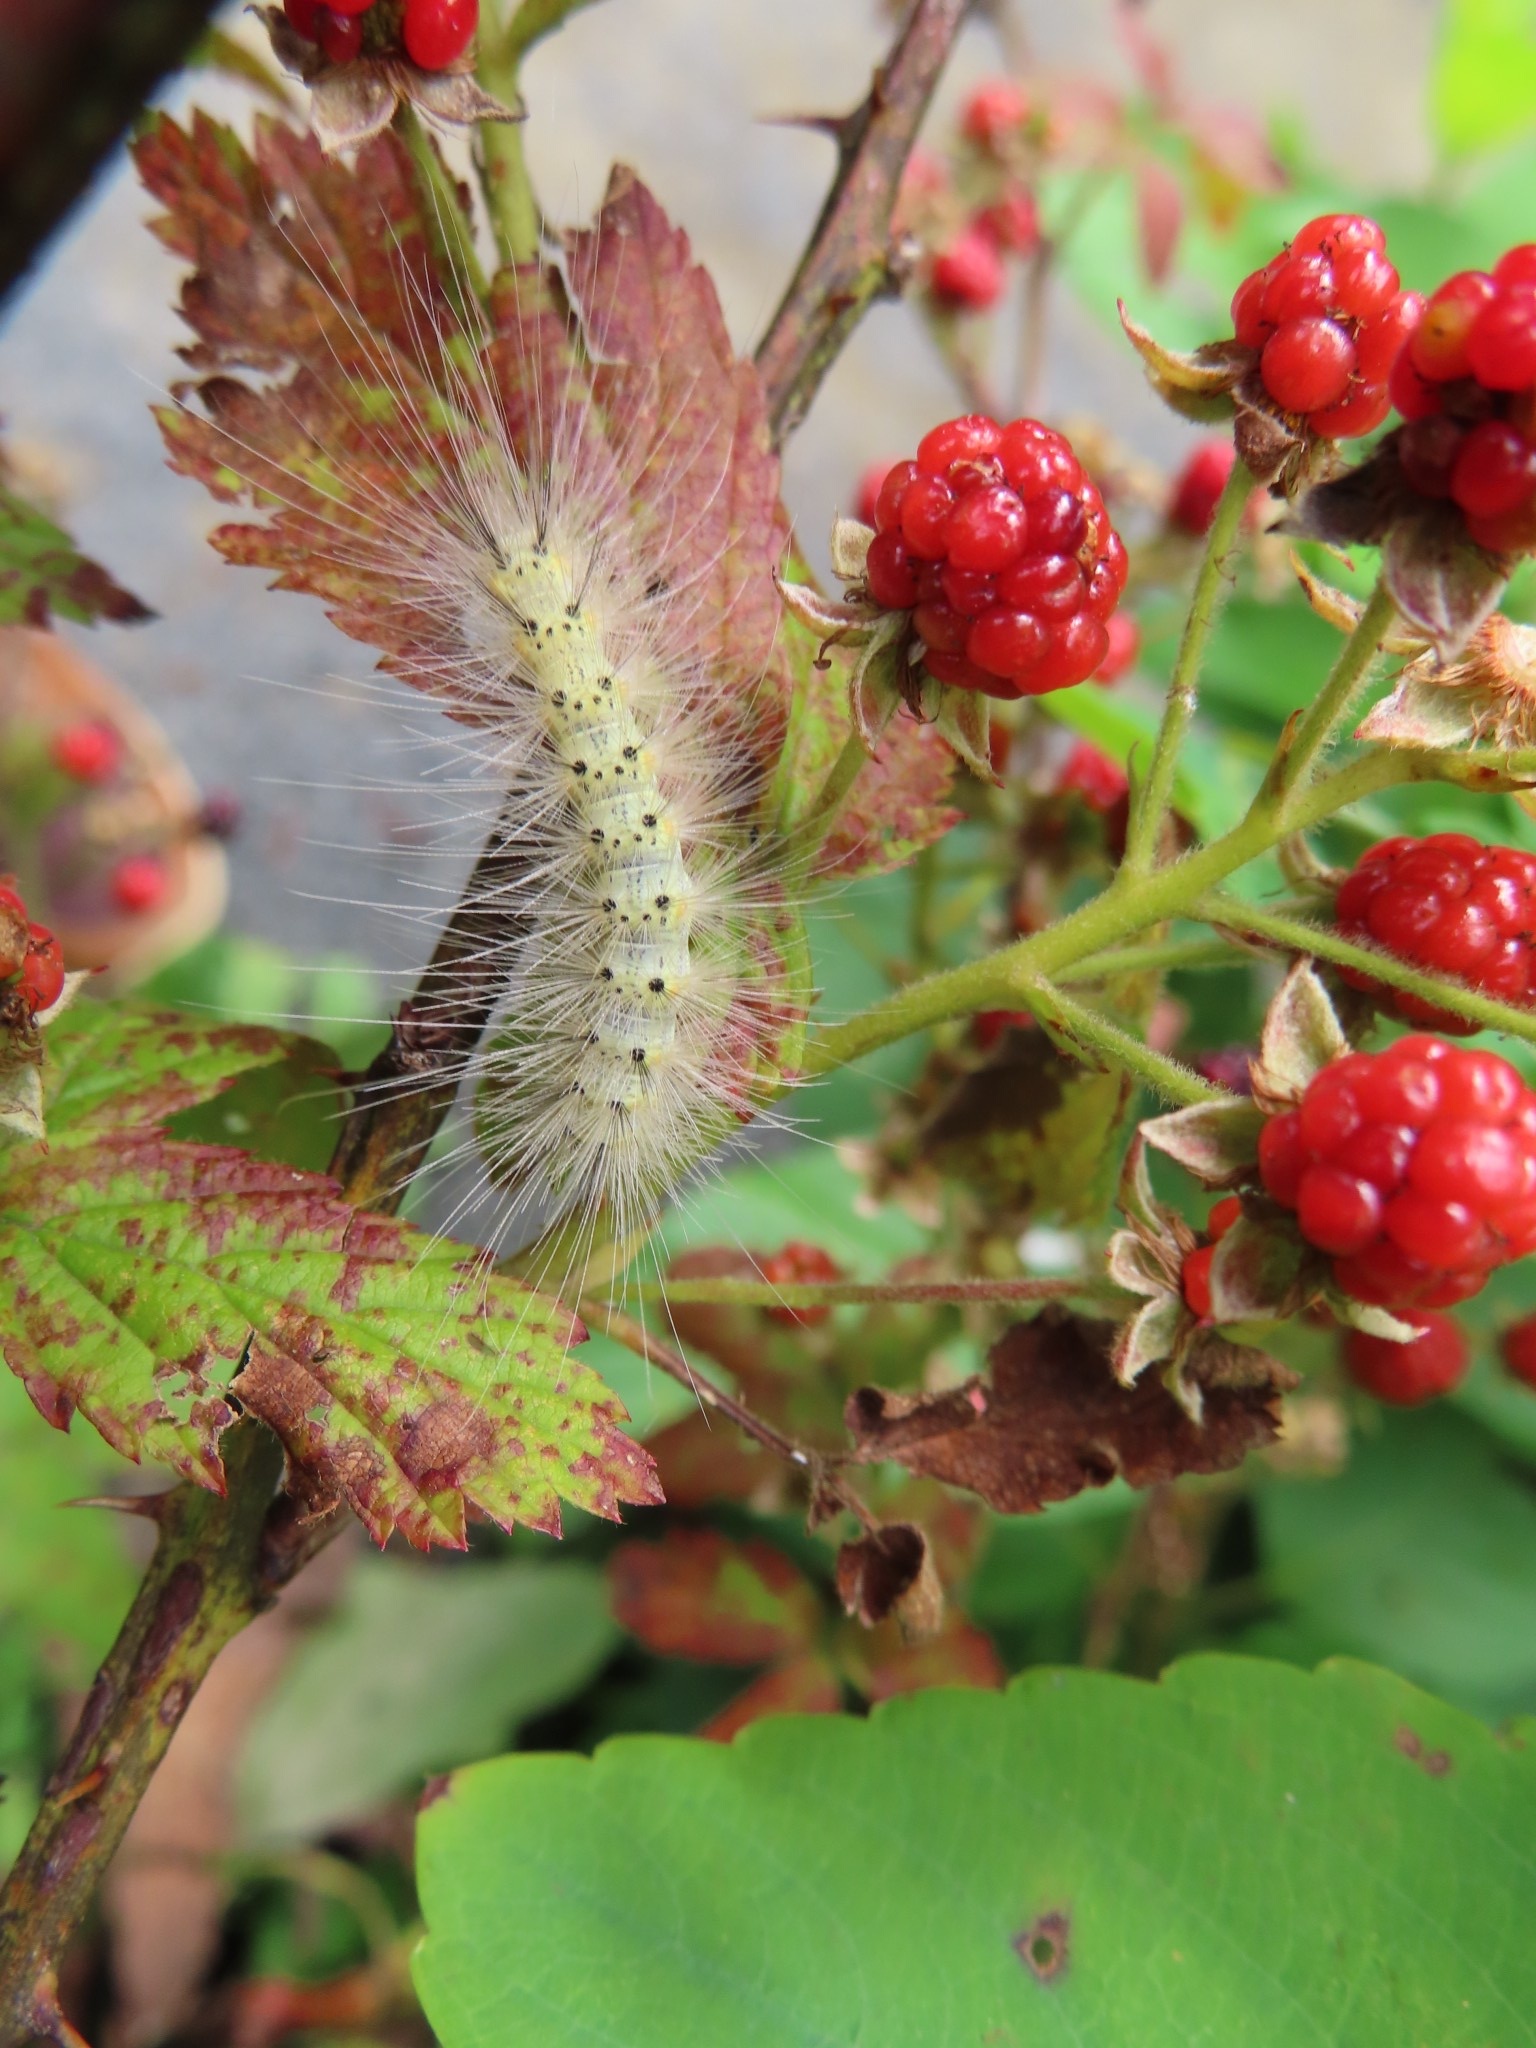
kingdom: Animalia
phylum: Arthropoda
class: Insecta
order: Lepidoptera
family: Erebidae
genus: Hyphantria
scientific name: Hyphantria cunea
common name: American white moth
